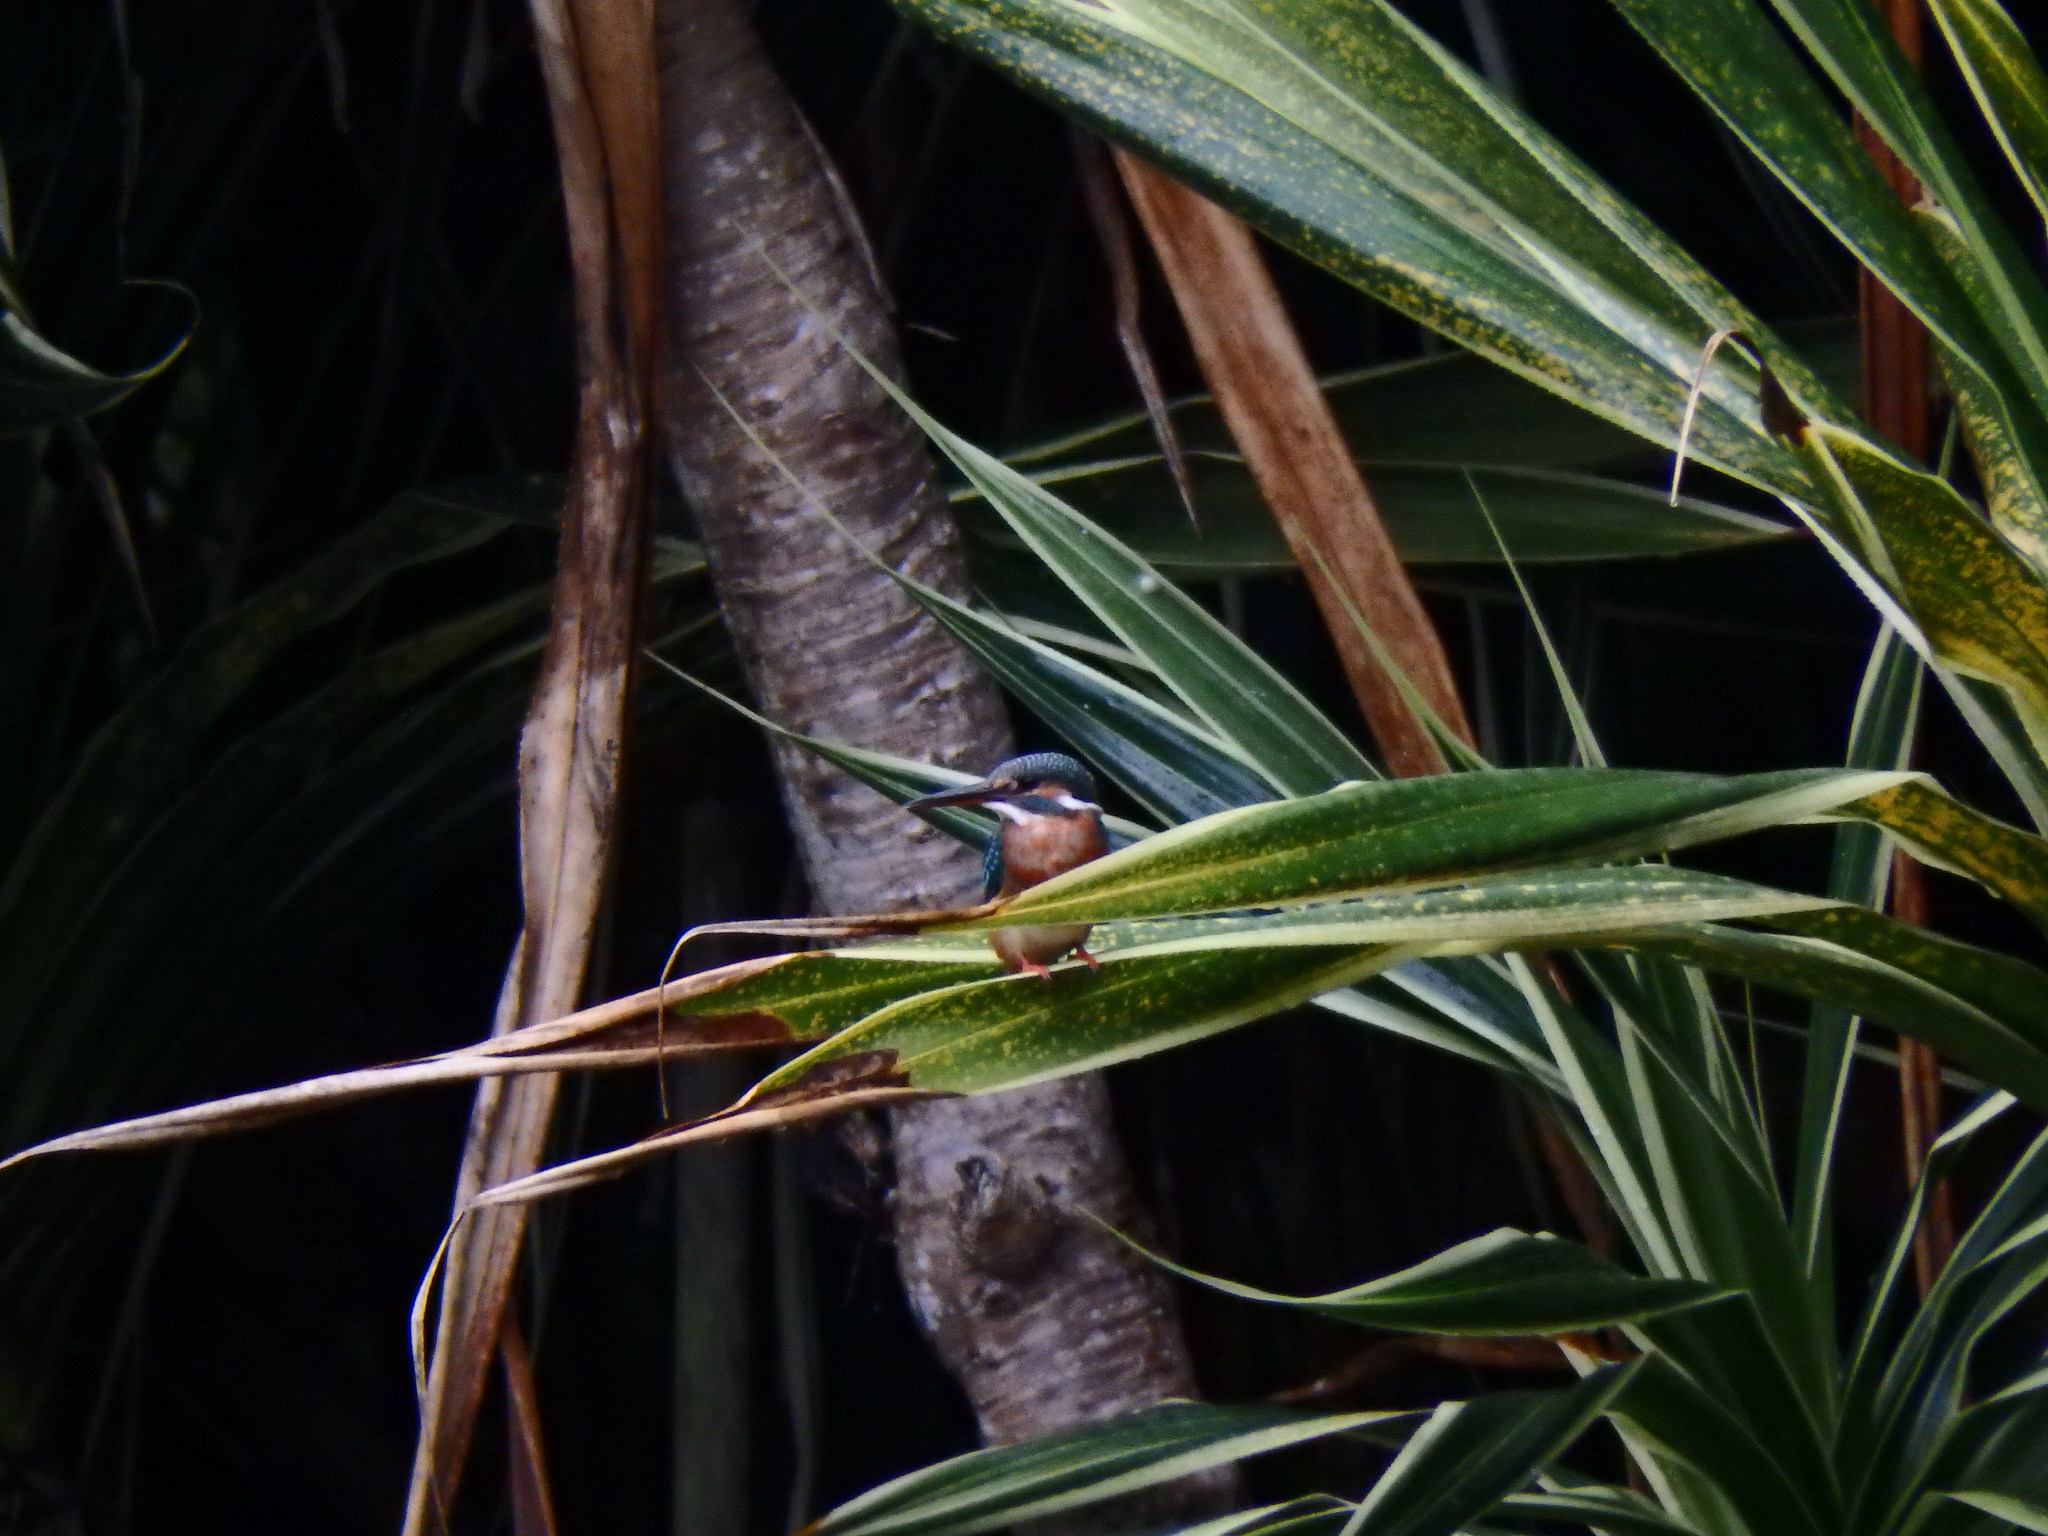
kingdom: Animalia
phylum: Chordata
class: Aves
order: Coraciiformes
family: Alcedinidae
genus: Alcedo
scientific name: Alcedo atthis
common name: Common kingfisher
